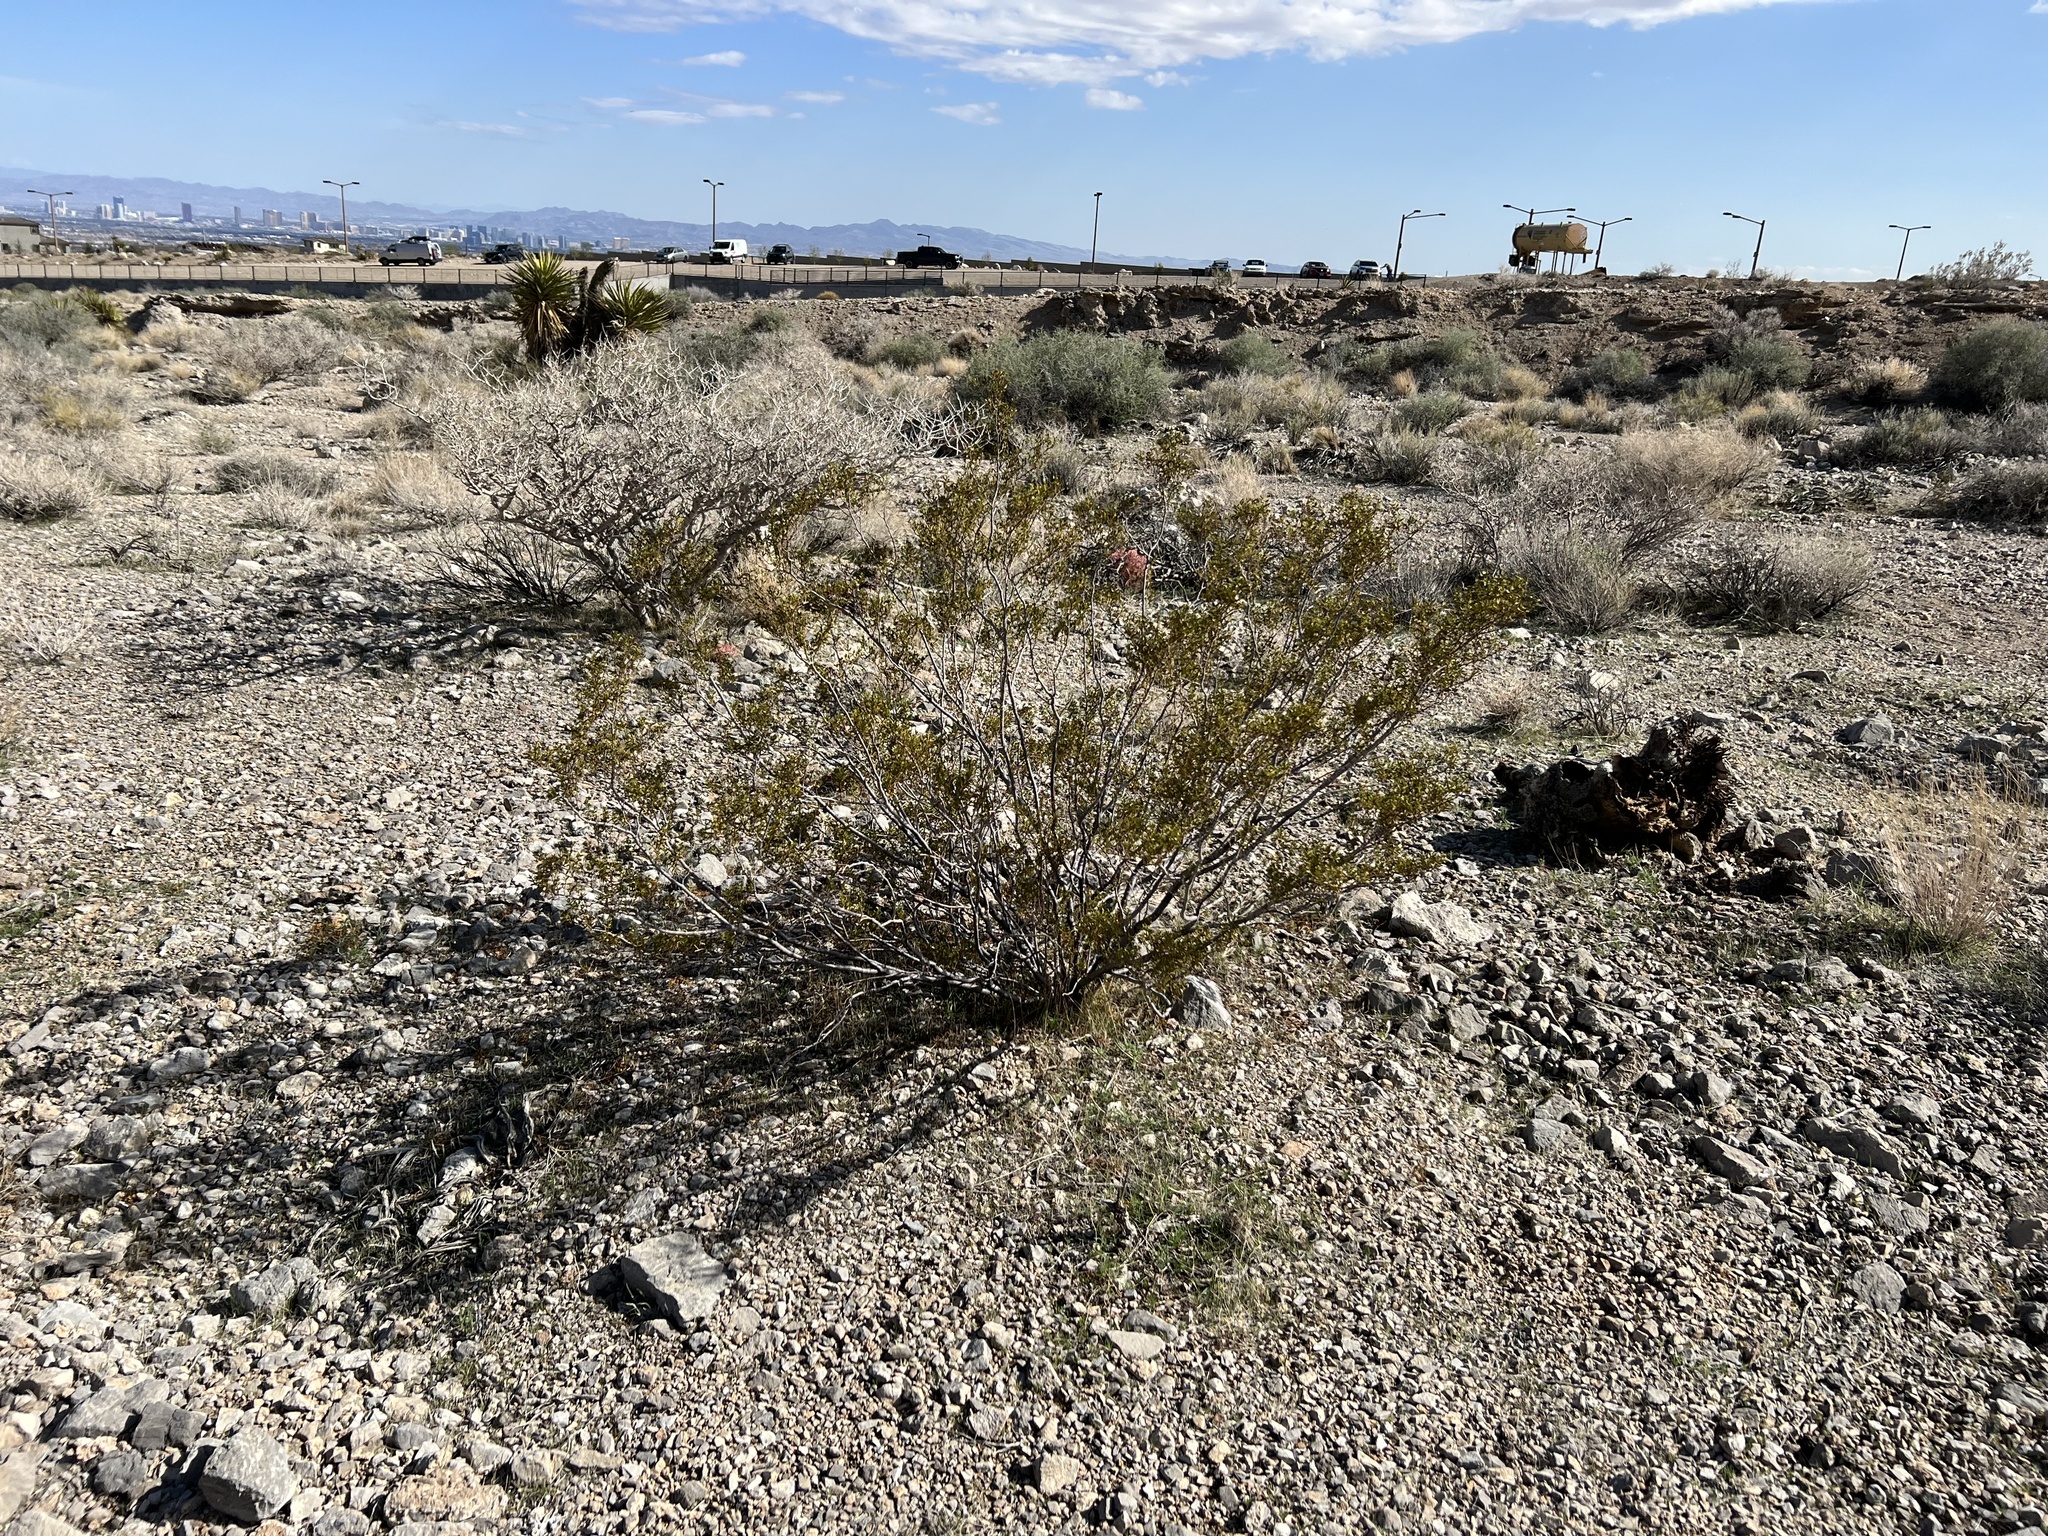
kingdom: Plantae
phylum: Tracheophyta
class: Magnoliopsida
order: Zygophyllales
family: Zygophyllaceae
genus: Larrea
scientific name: Larrea tridentata
